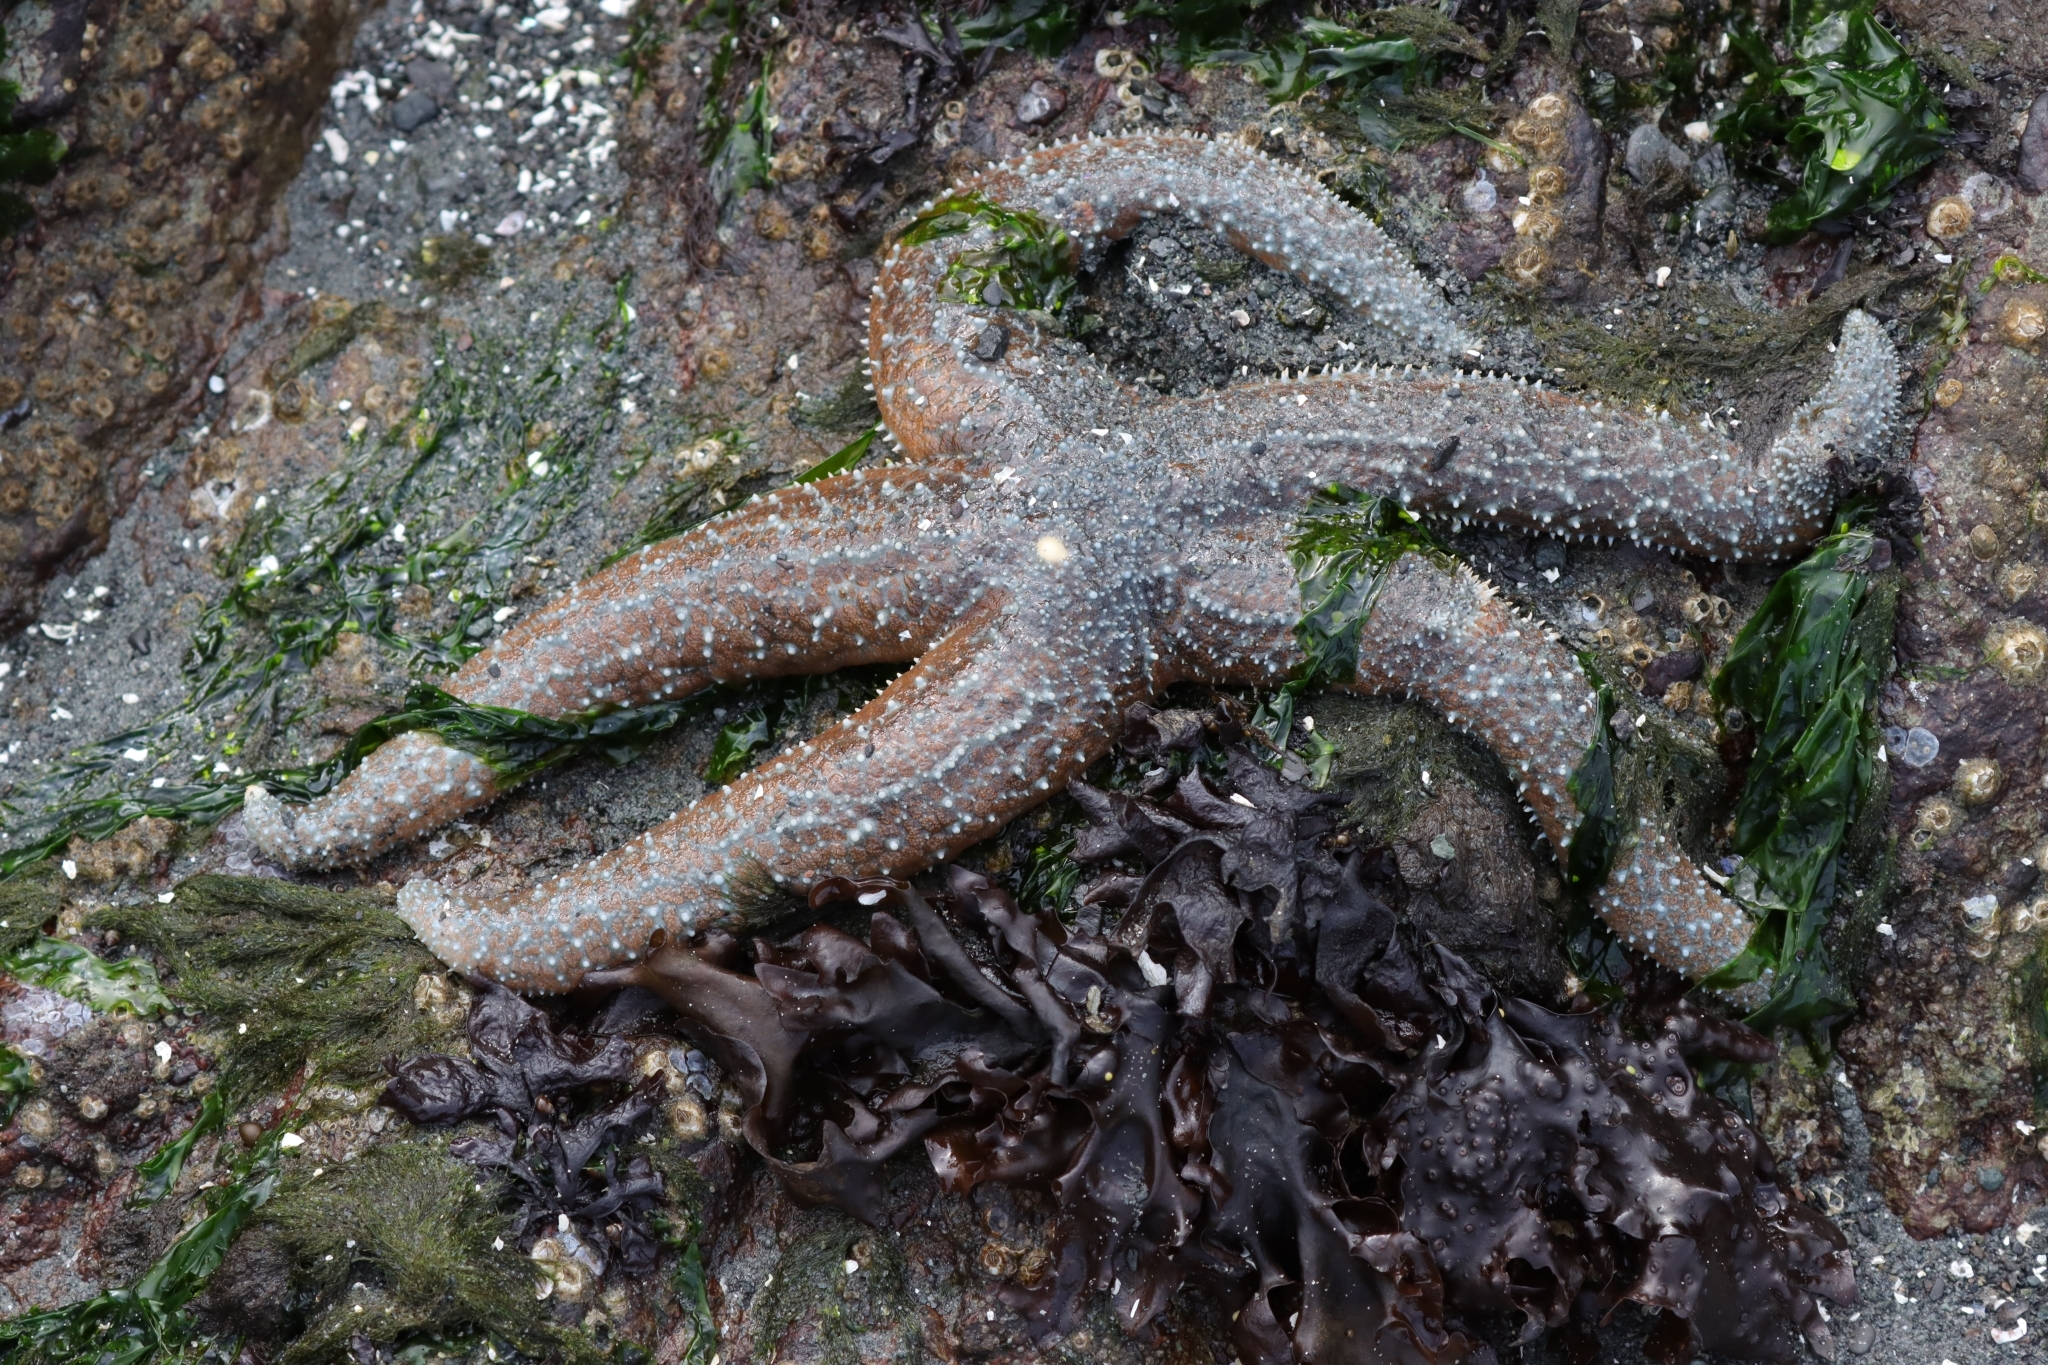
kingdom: Animalia
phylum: Echinodermata
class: Asteroidea
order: Forcipulatida
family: Asteriidae
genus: Evasterias
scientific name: Evasterias troschelii
